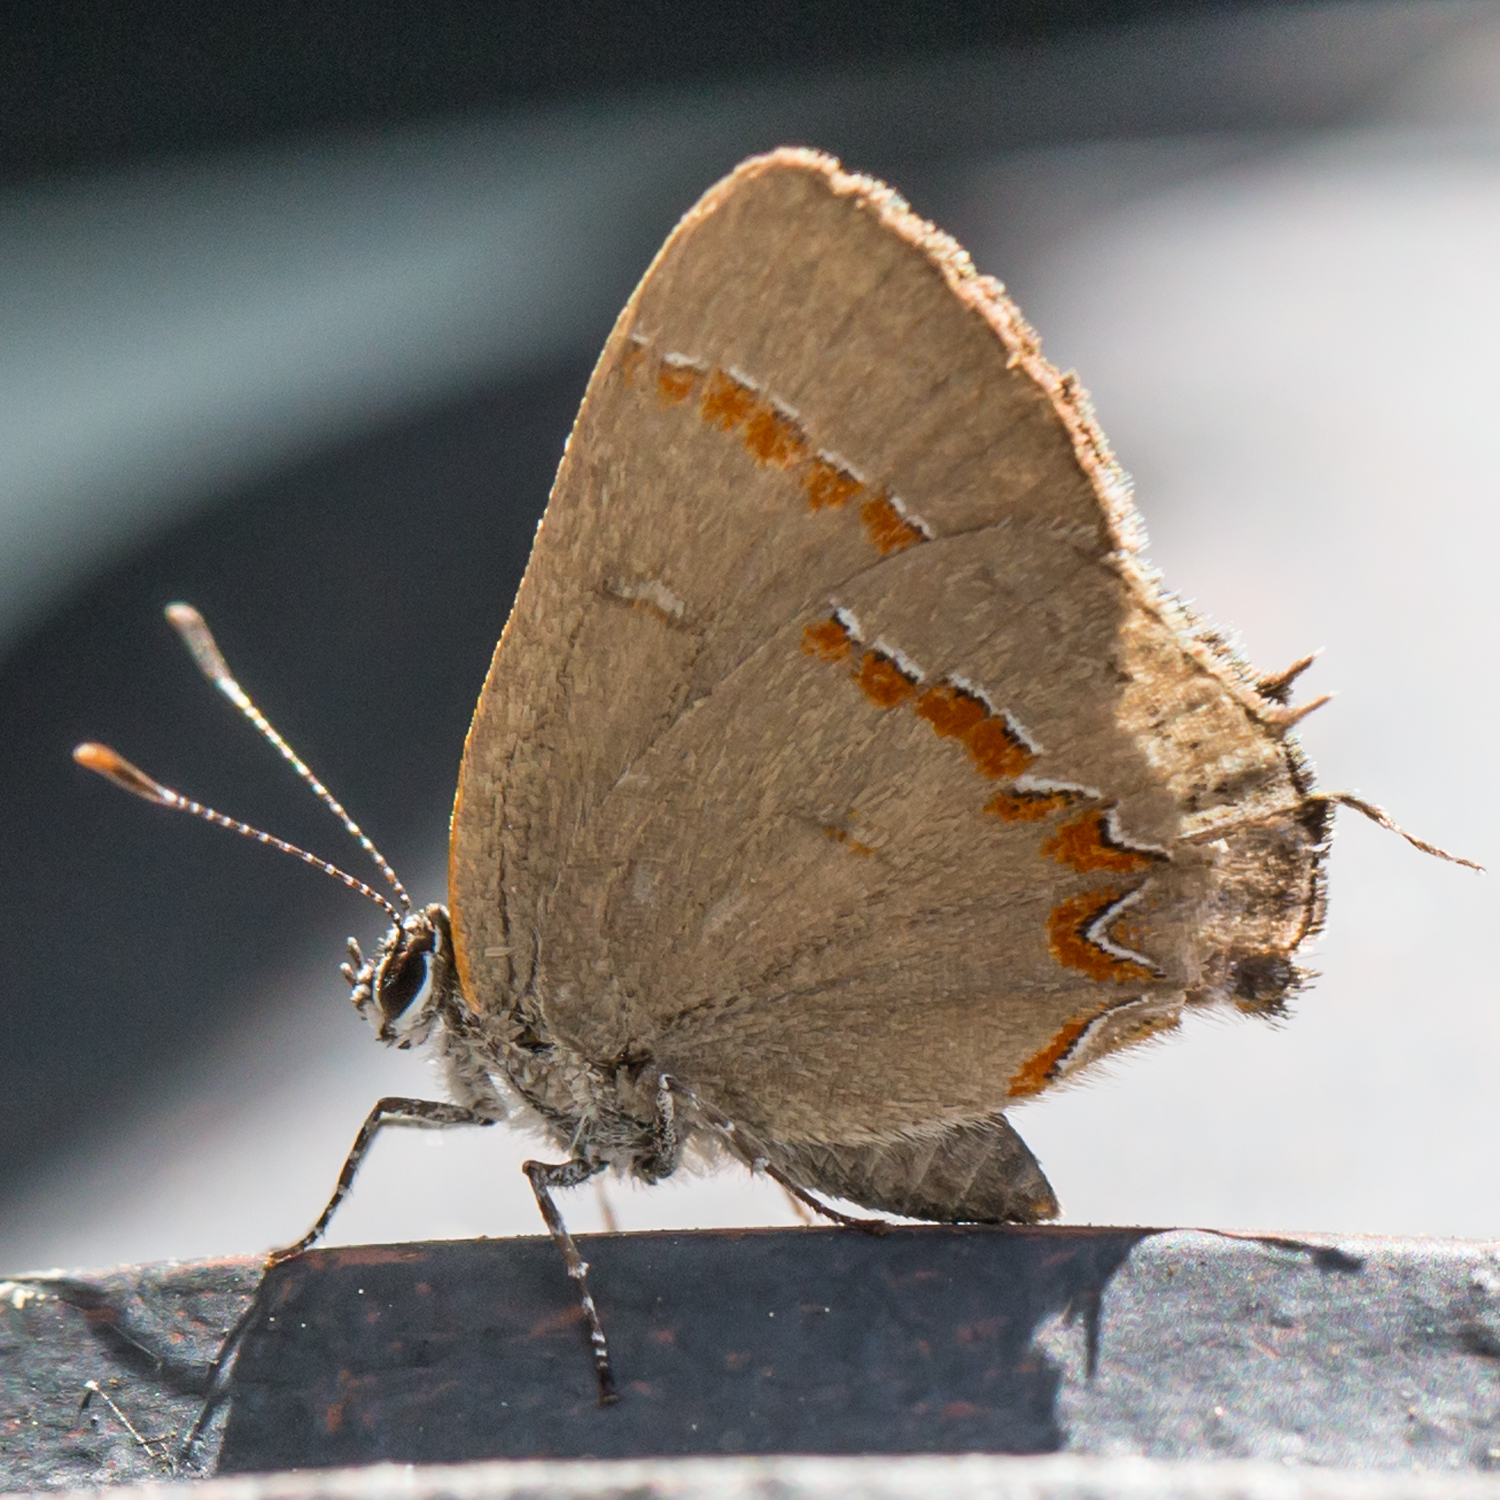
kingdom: Animalia
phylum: Arthropoda
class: Insecta
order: Lepidoptera
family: Lycaenidae
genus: Calycopis
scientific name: Calycopis cecrops
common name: Red-banded hairstreak
